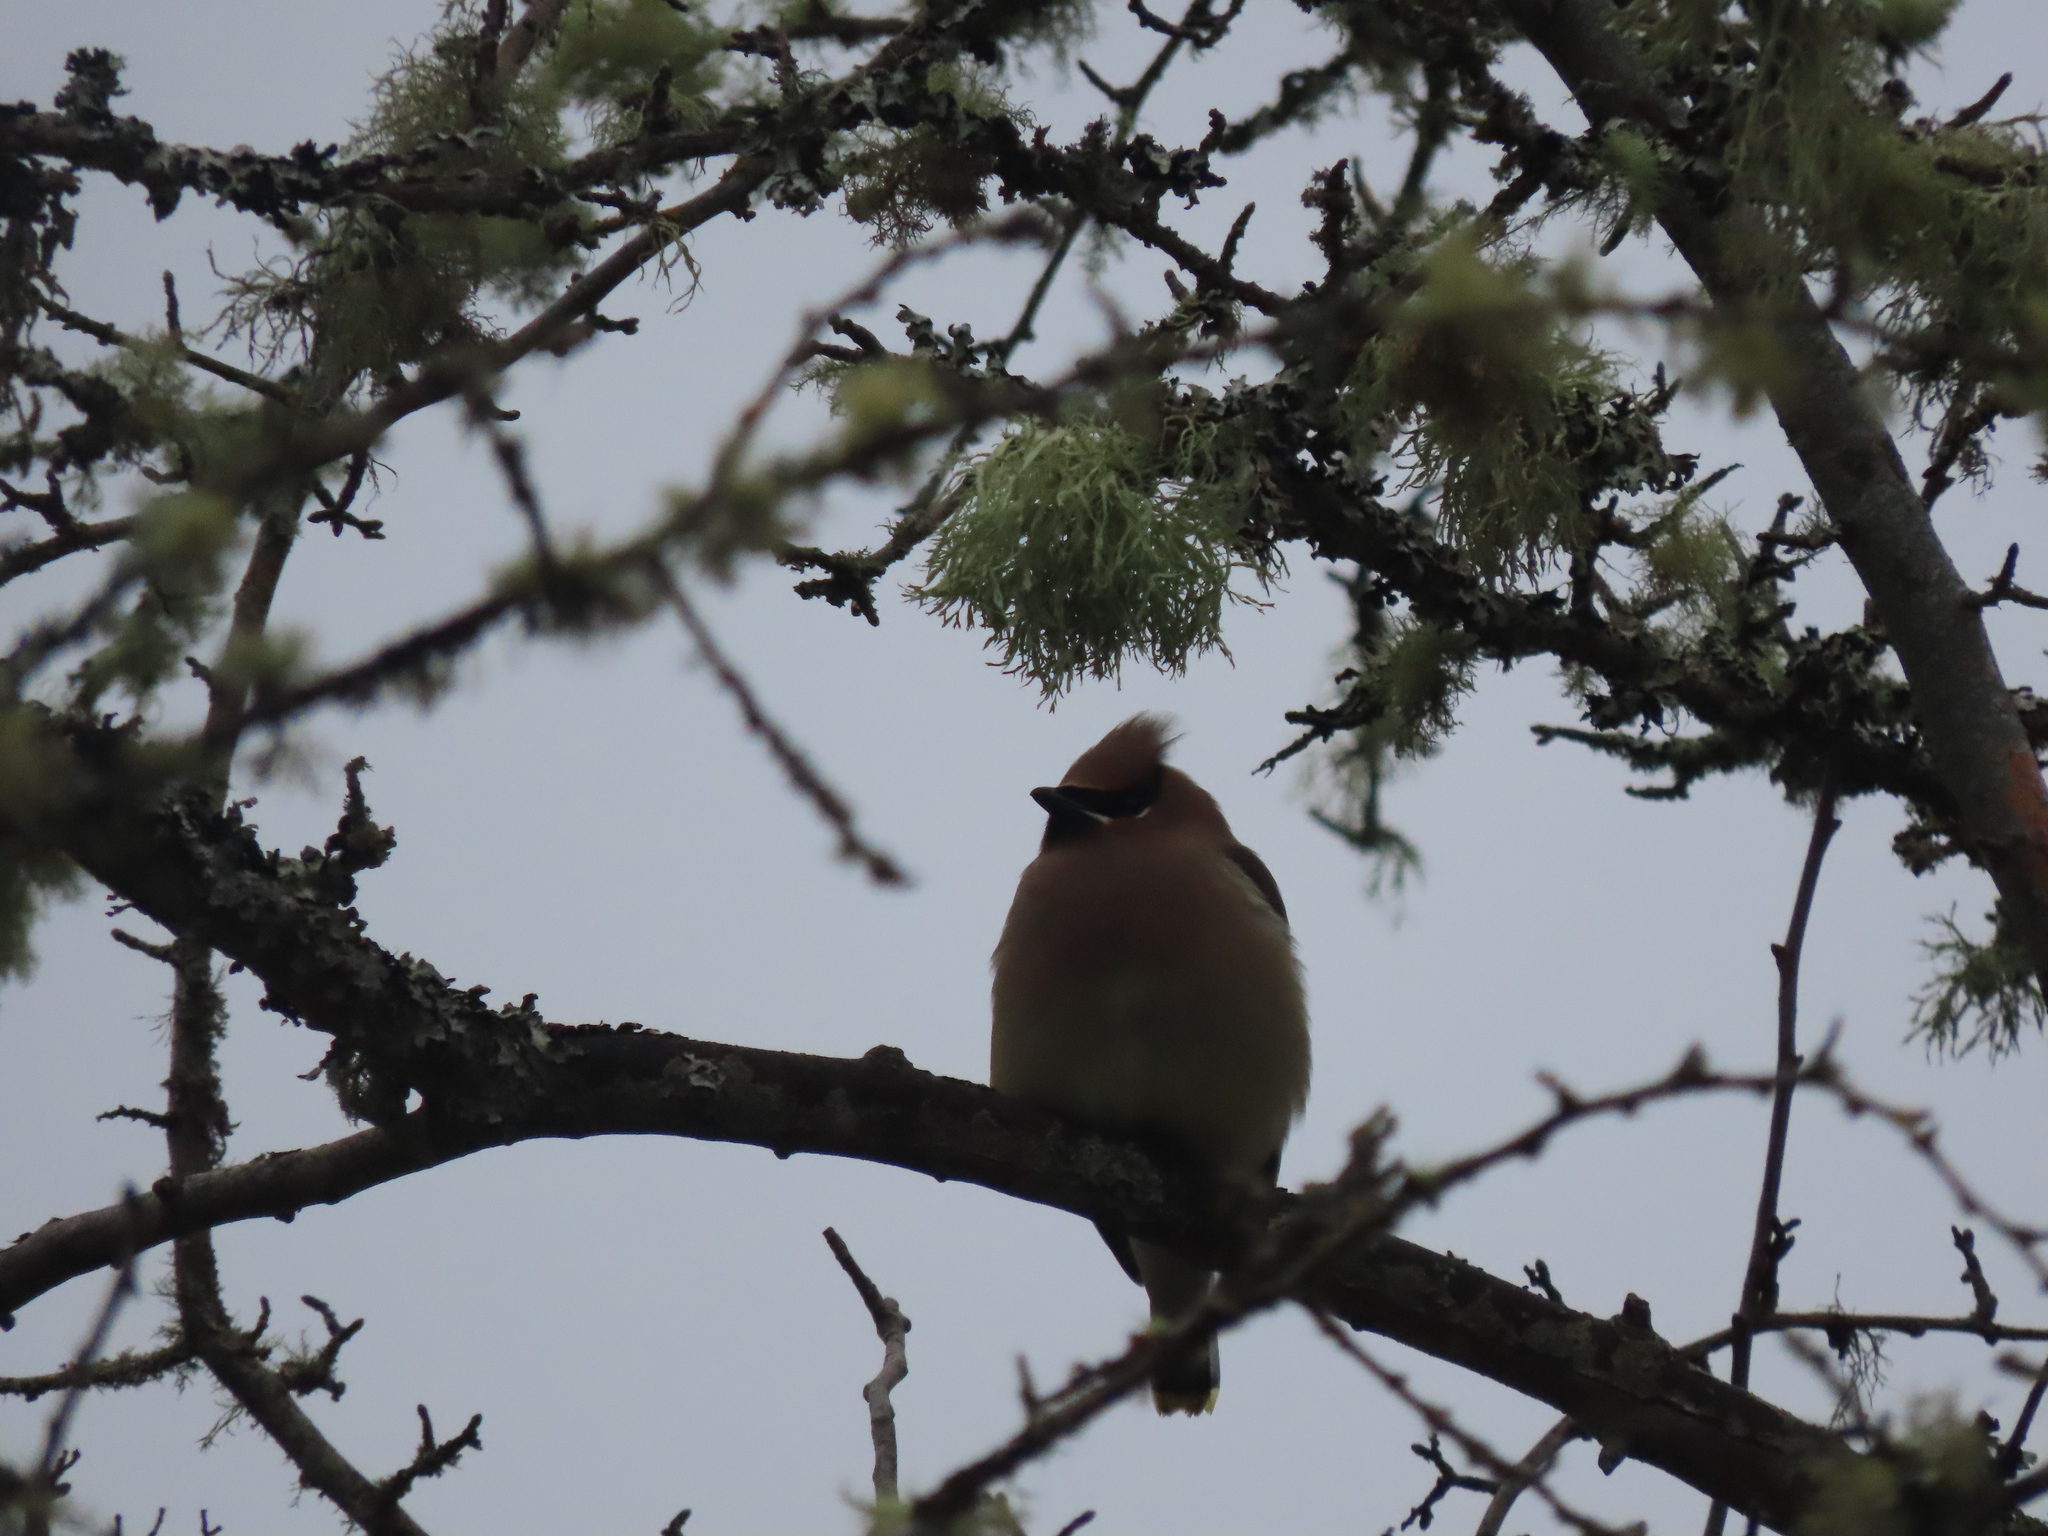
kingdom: Animalia
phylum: Chordata
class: Aves
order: Passeriformes
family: Bombycillidae
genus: Bombycilla
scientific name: Bombycilla cedrorum
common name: Cedar waxwing
